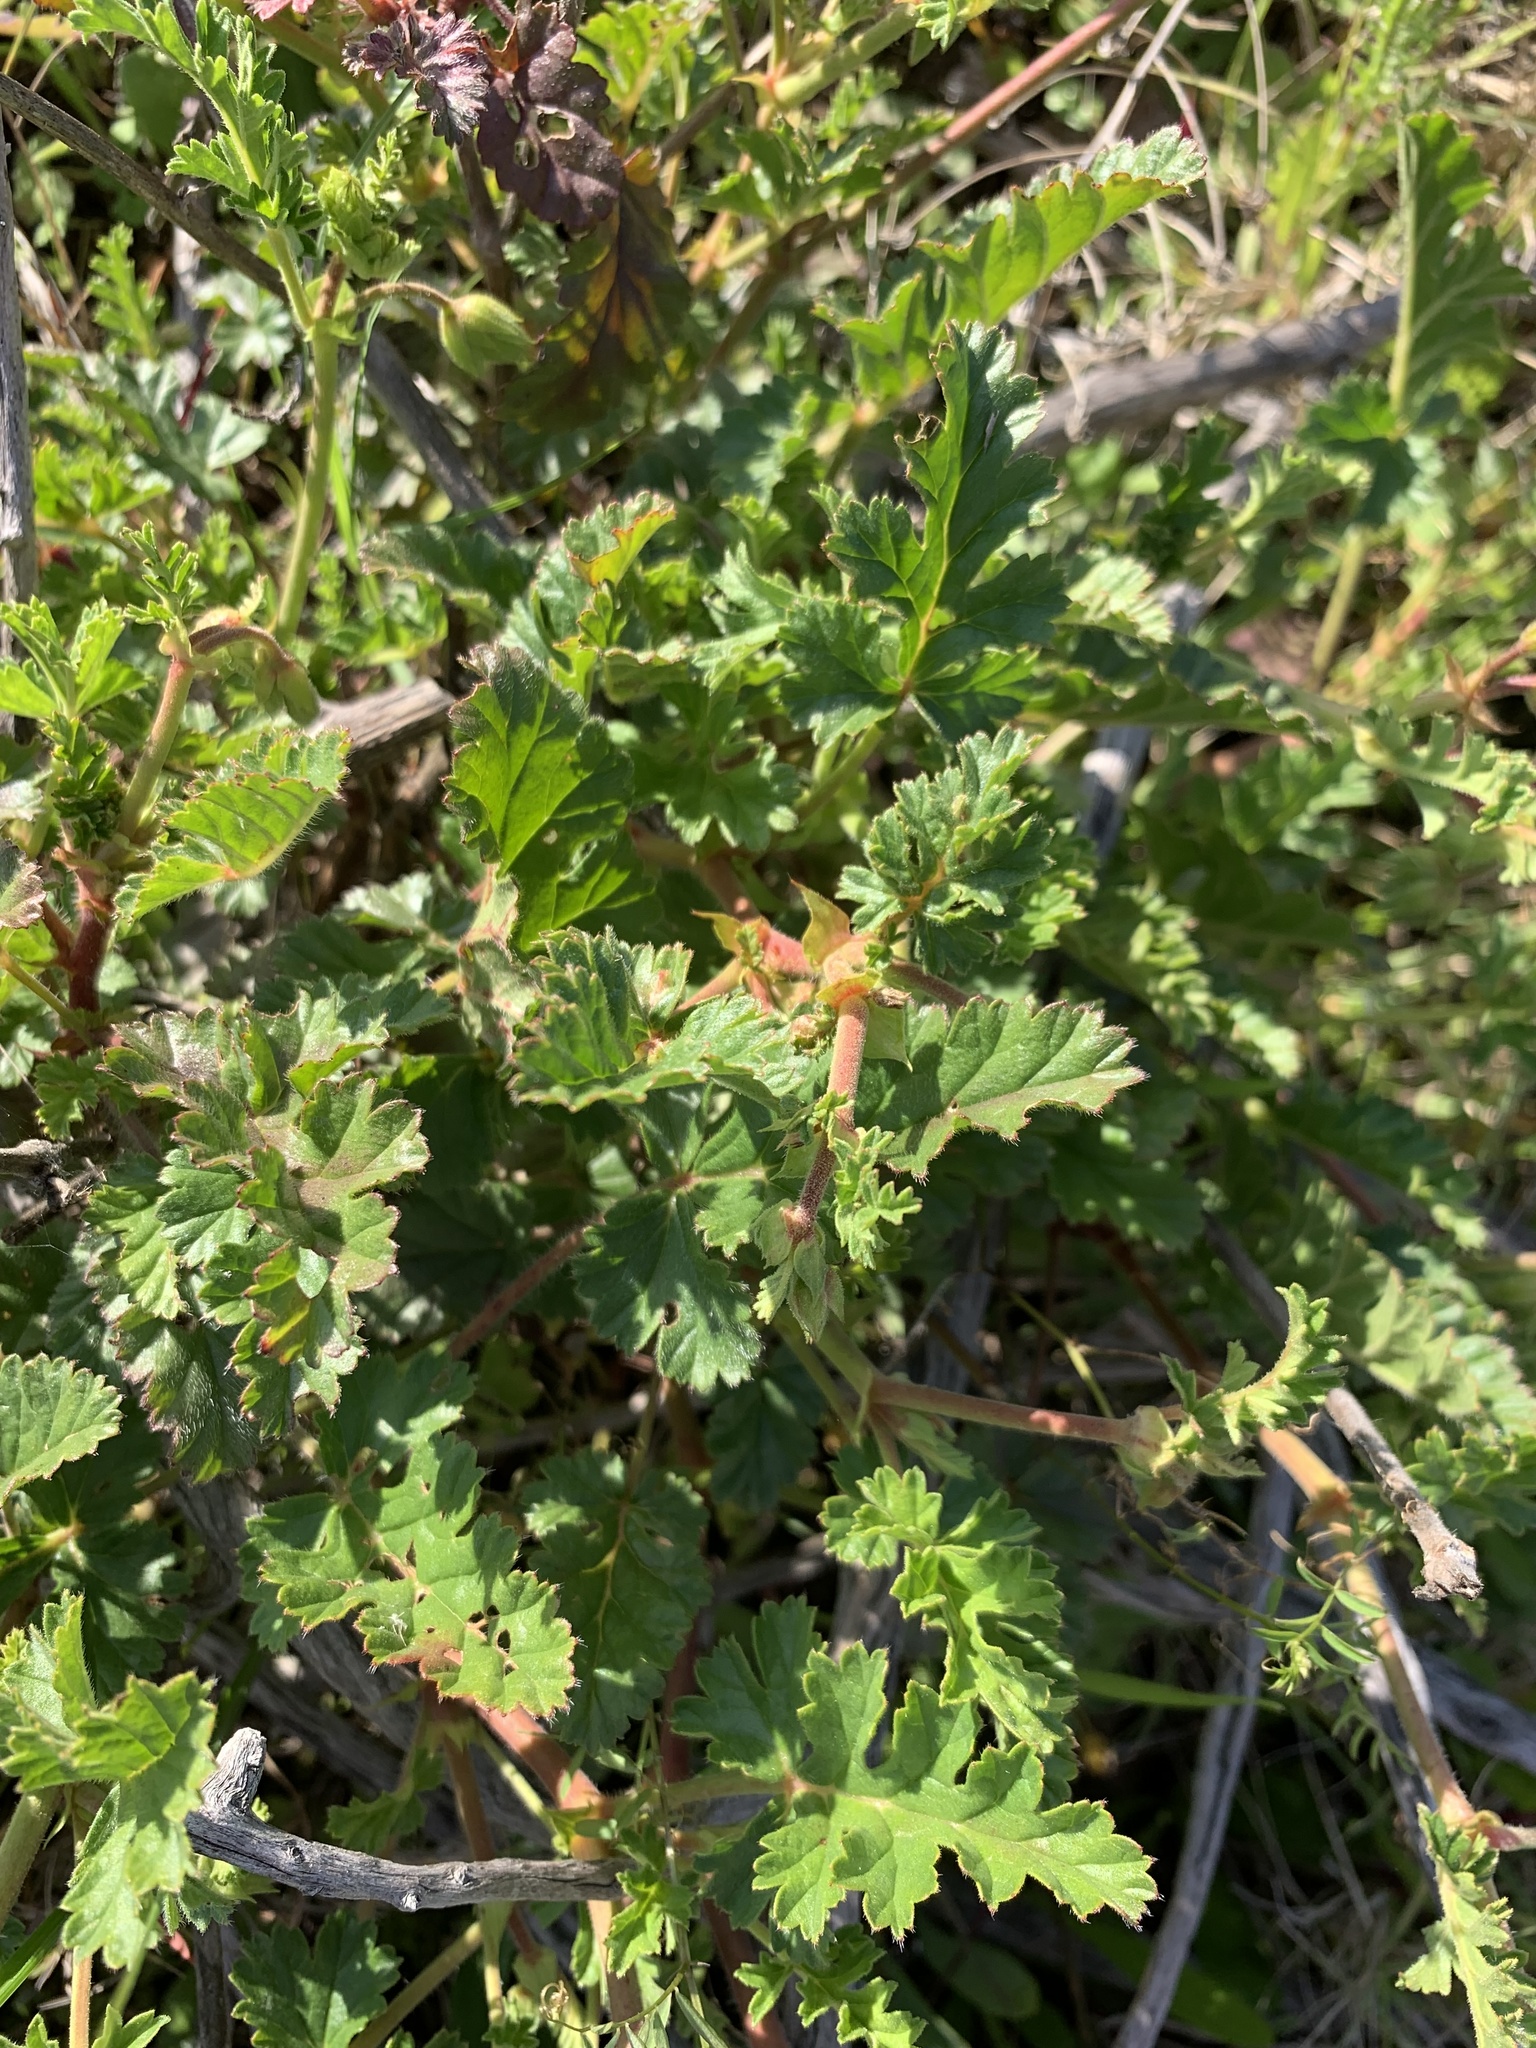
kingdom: Plantae
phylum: Tracheophyta
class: Magnoliopsida
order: Geraniales
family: Geraniaceae
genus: Pelargonium
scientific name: Pelargonium myrrhifolium
